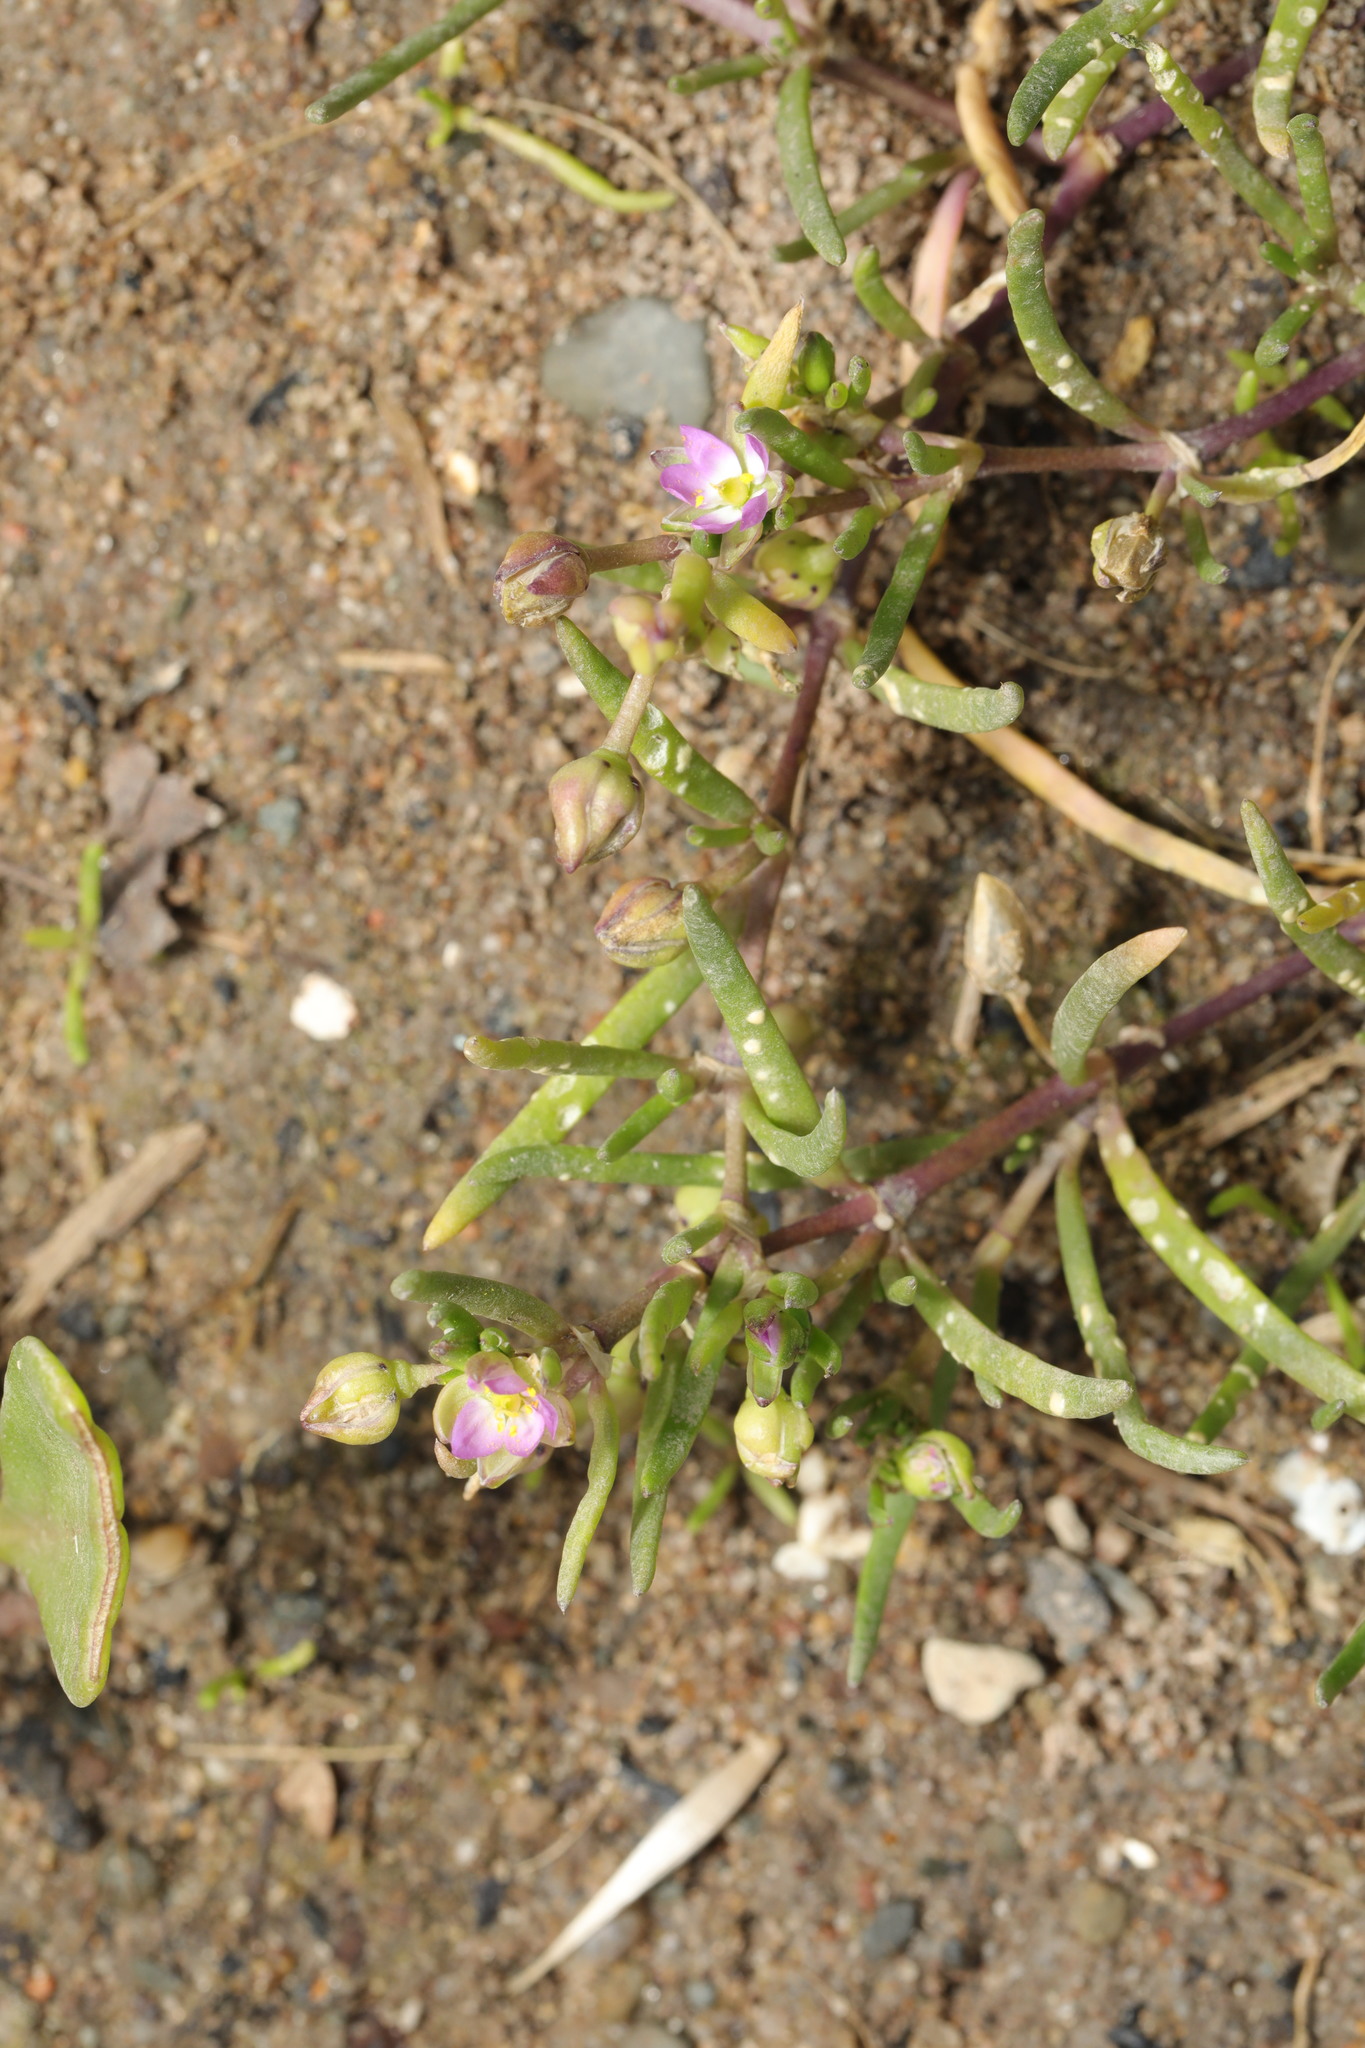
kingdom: Plantae
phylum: Tracheophyta
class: Magnoliopsida
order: Caryophyllales
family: Caryophyllaceae
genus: Spergularia
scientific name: Spergularia marina
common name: Lesser sea-spurrey
